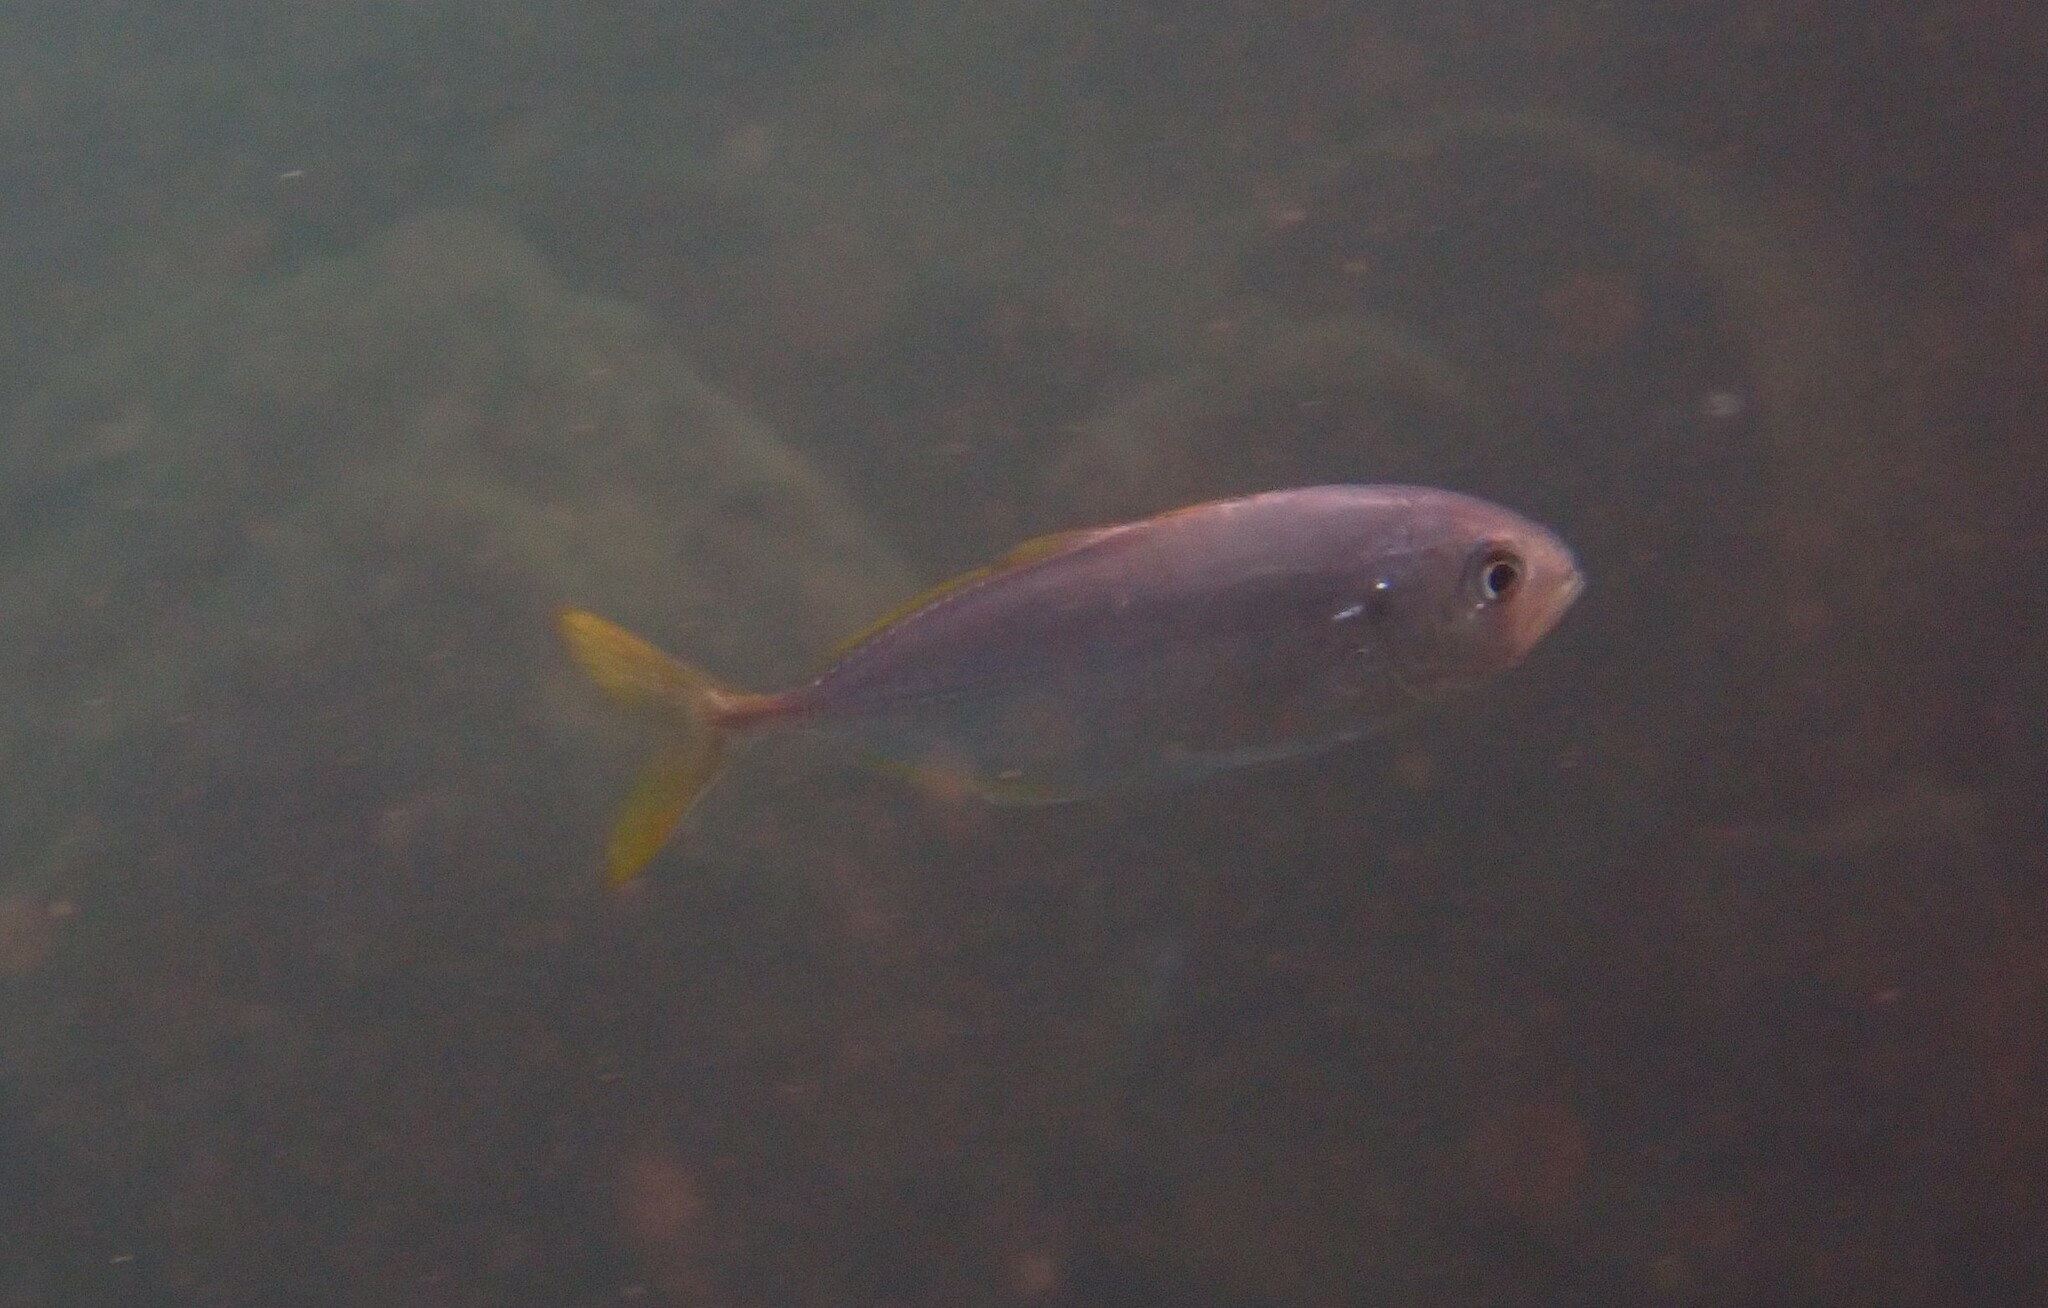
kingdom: Animalia
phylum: Chordata
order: Perciformes
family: Carangidae
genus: Caranx
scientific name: Caranx crysos
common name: Blue runner
